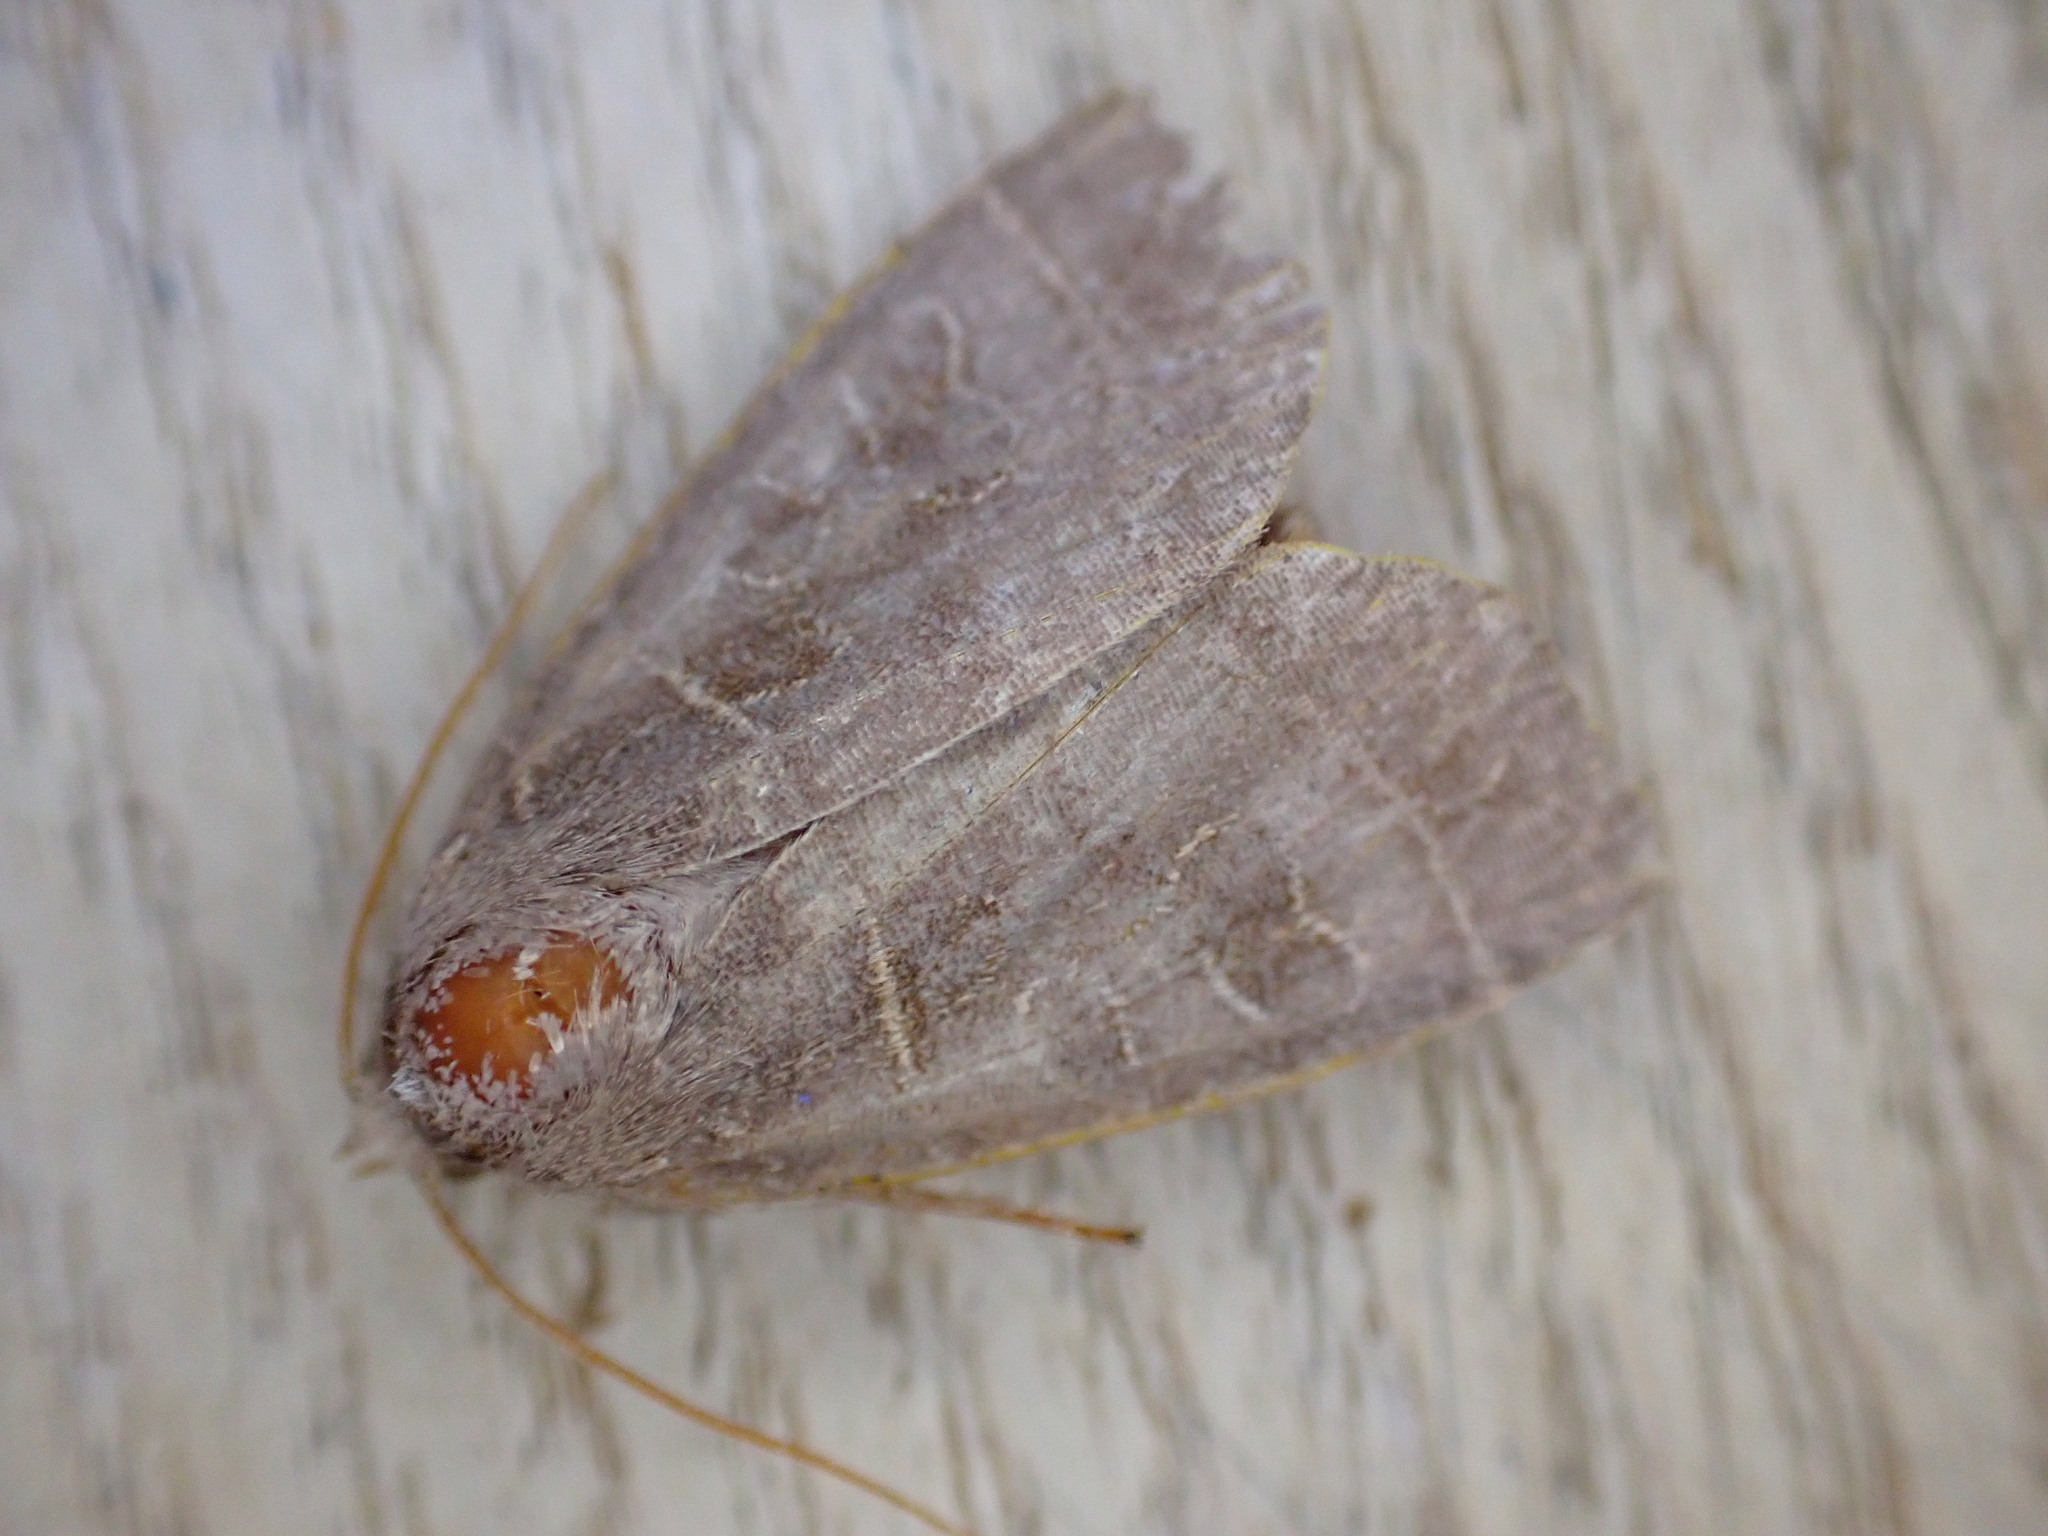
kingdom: Animalia
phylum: Arthropoda
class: Insecta
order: Lepidoptera
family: Noctuidae
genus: Ipimorpha
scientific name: Ipimorpha subtusa
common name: Olive
